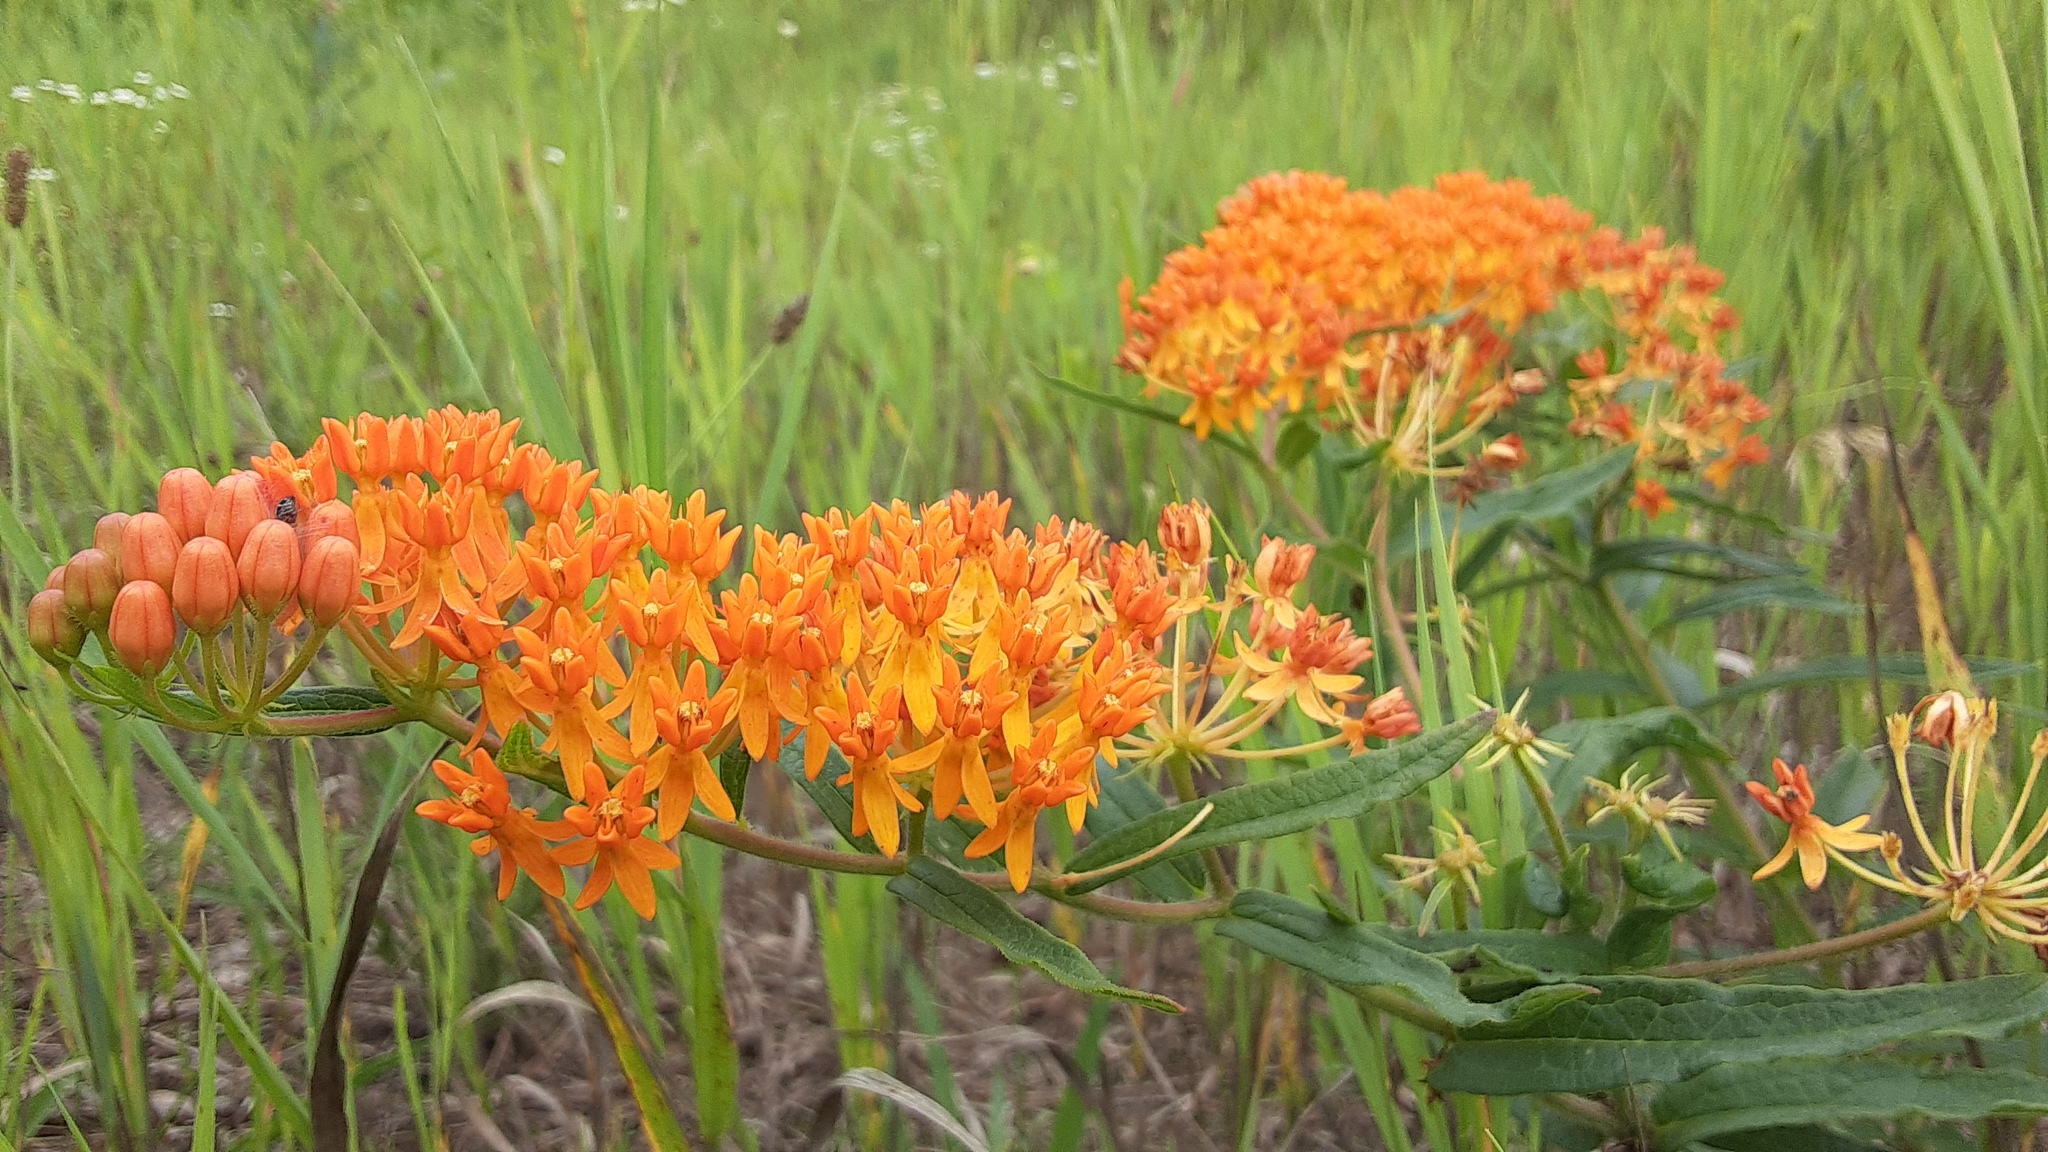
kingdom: Plantae
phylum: Tracheophyta
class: Magnoliopsida
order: Gentianales
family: Apocynaceae
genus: Asclepias
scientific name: Asclepias tuberosa
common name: Butterfly milkweed
